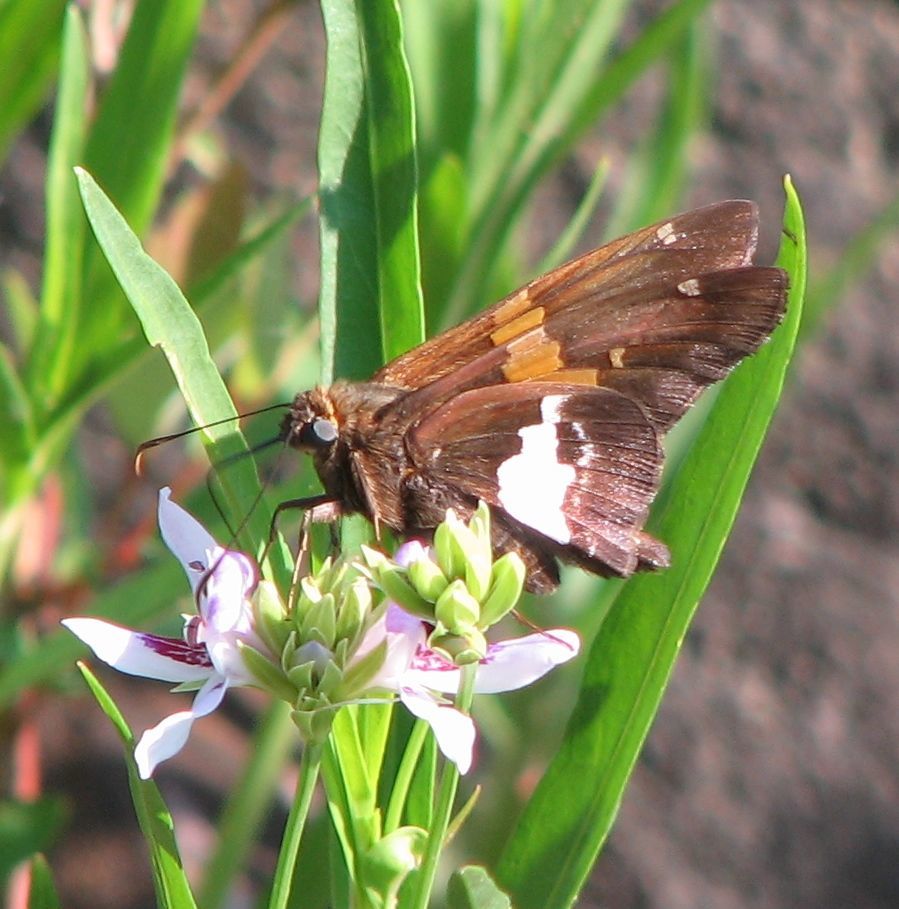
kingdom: Animalia
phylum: Arthropoda
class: Insecta
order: Lepidoptera
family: Hesperiidae
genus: Epargyreus
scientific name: Epargyreus clarus
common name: Silver-spotted skipper
